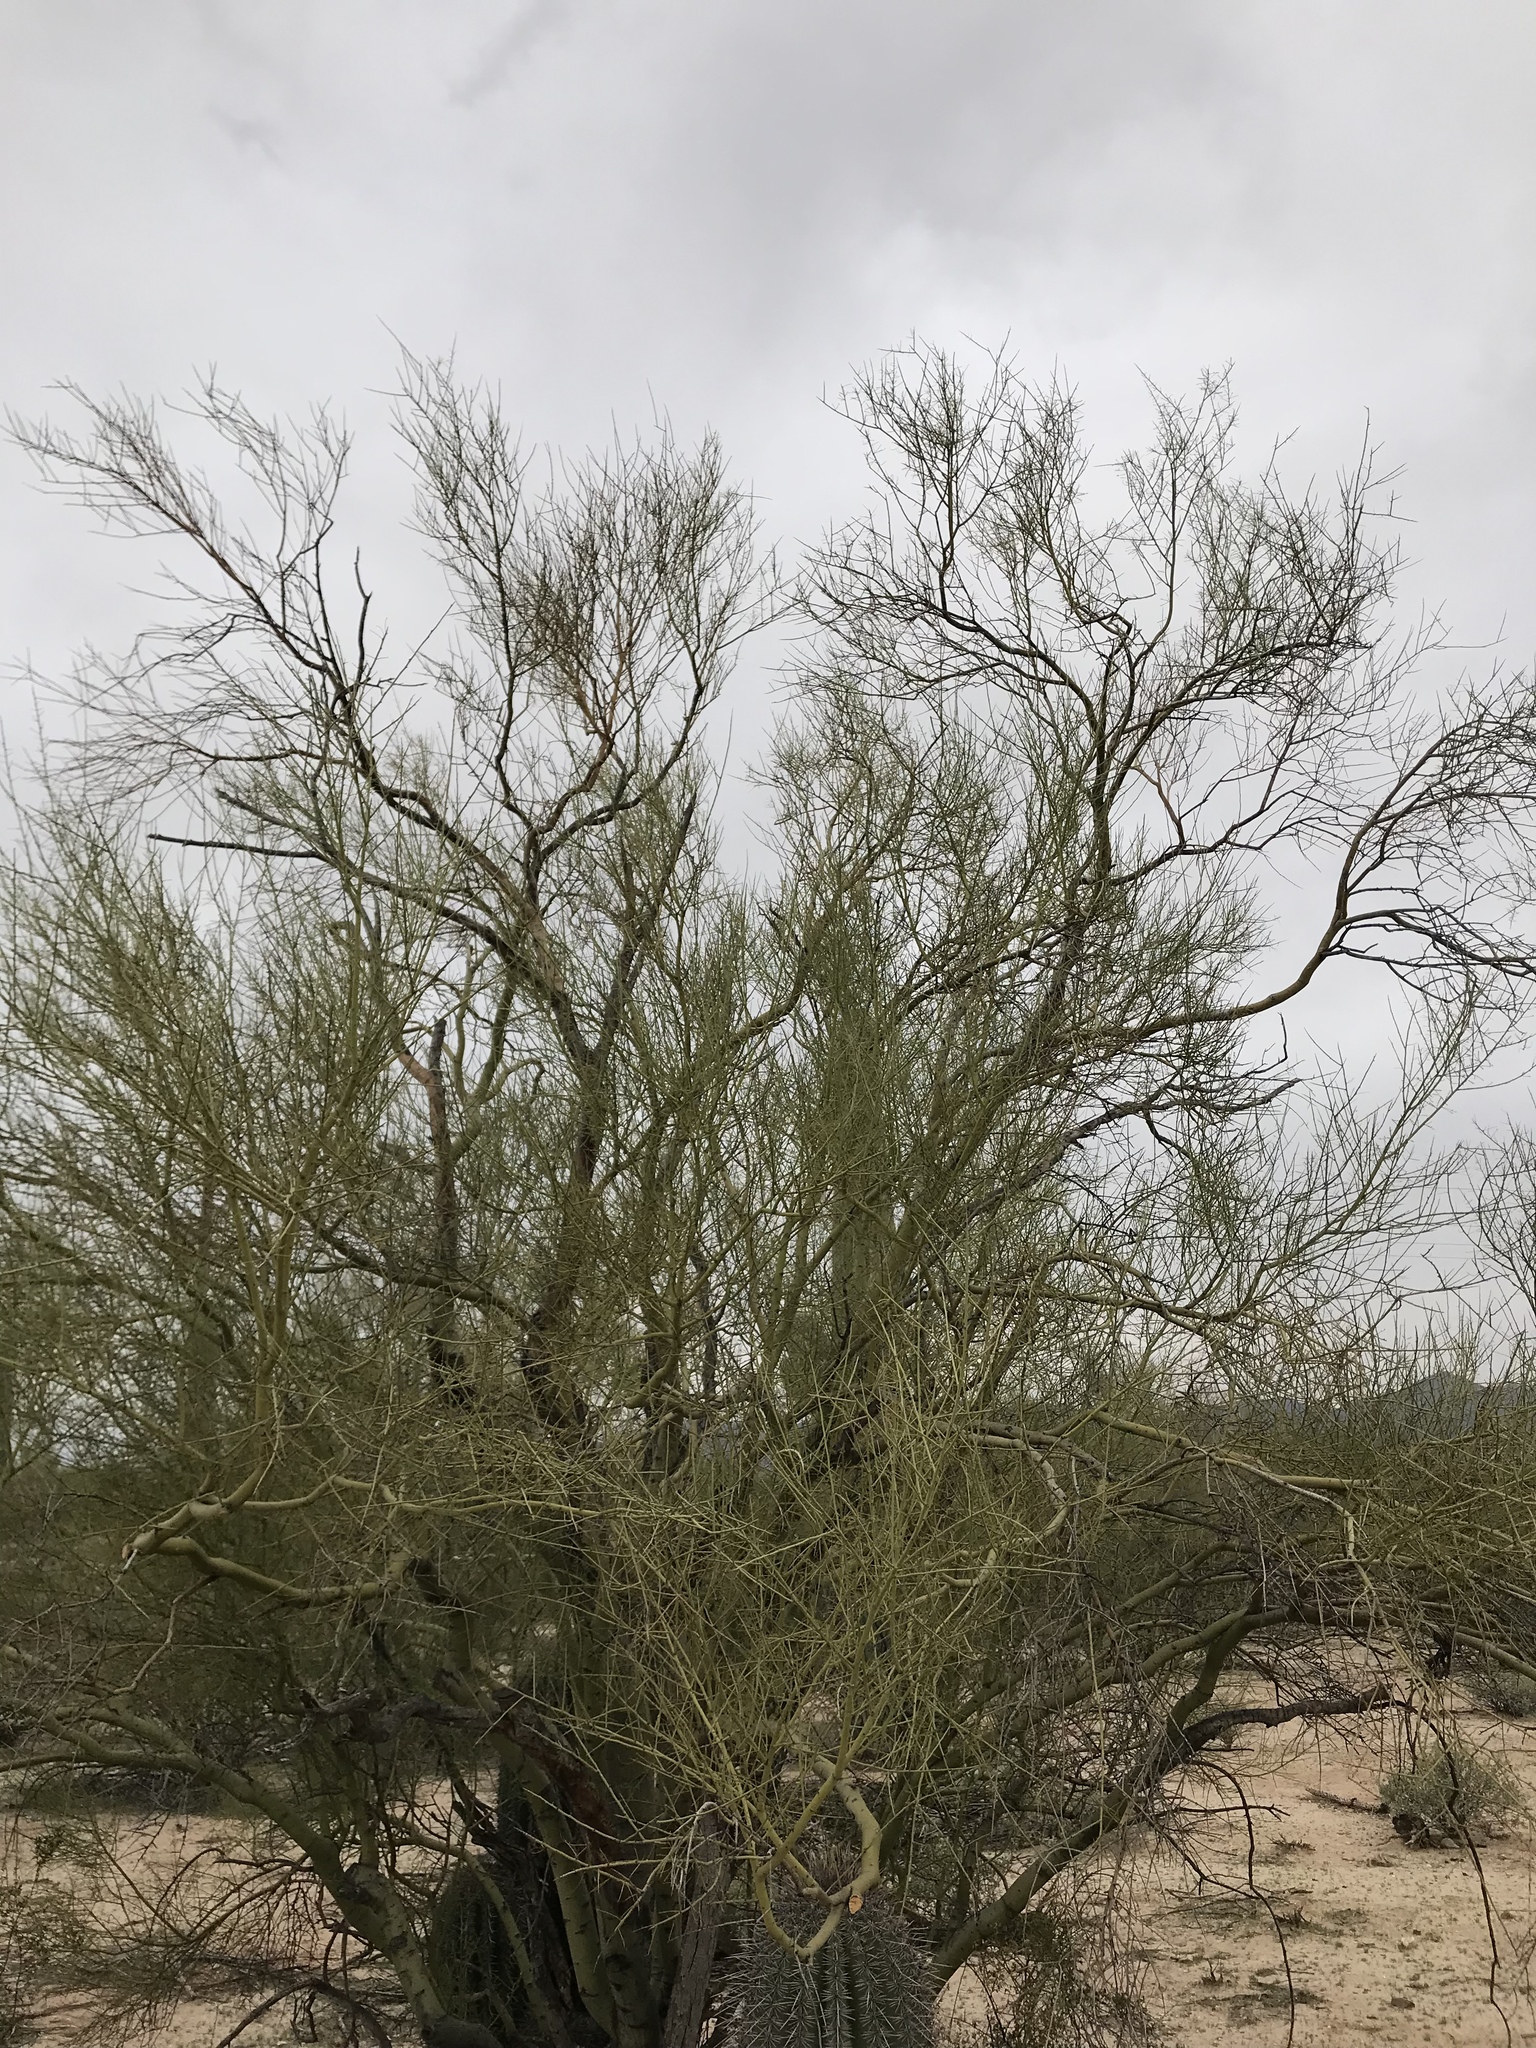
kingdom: Plantae
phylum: Tracheophyta
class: Magnoliopsida
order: Fabales
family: Fabaceae
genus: Parkinsonia
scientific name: Parkinsonia microphylla
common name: Yellow paloverde
